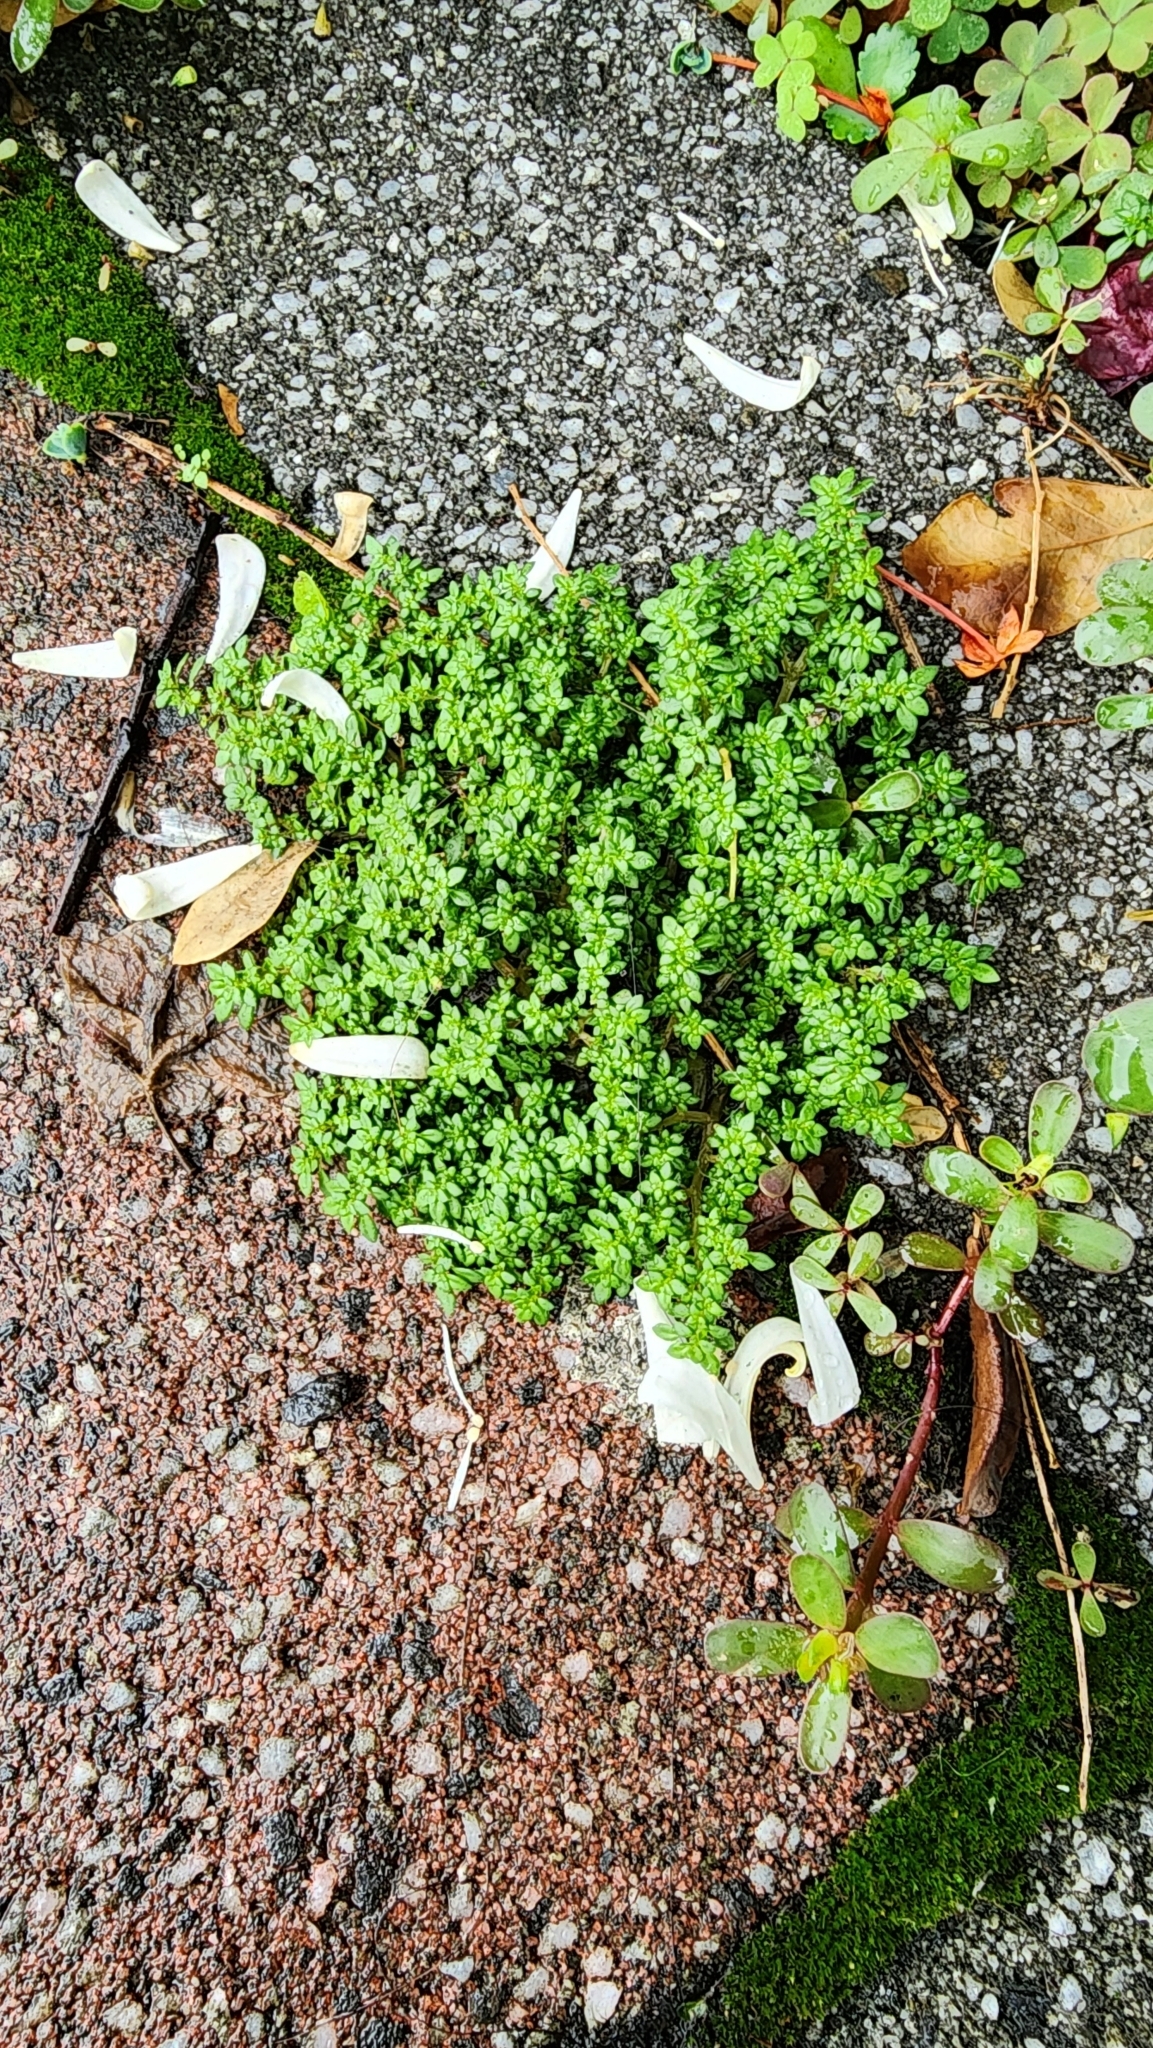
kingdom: Plantae
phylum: Tracheophyta
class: Magnoliopsida
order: Rosales
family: Urticaceae
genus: Pilea
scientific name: Pilea microphylla
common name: Artillery-plant
